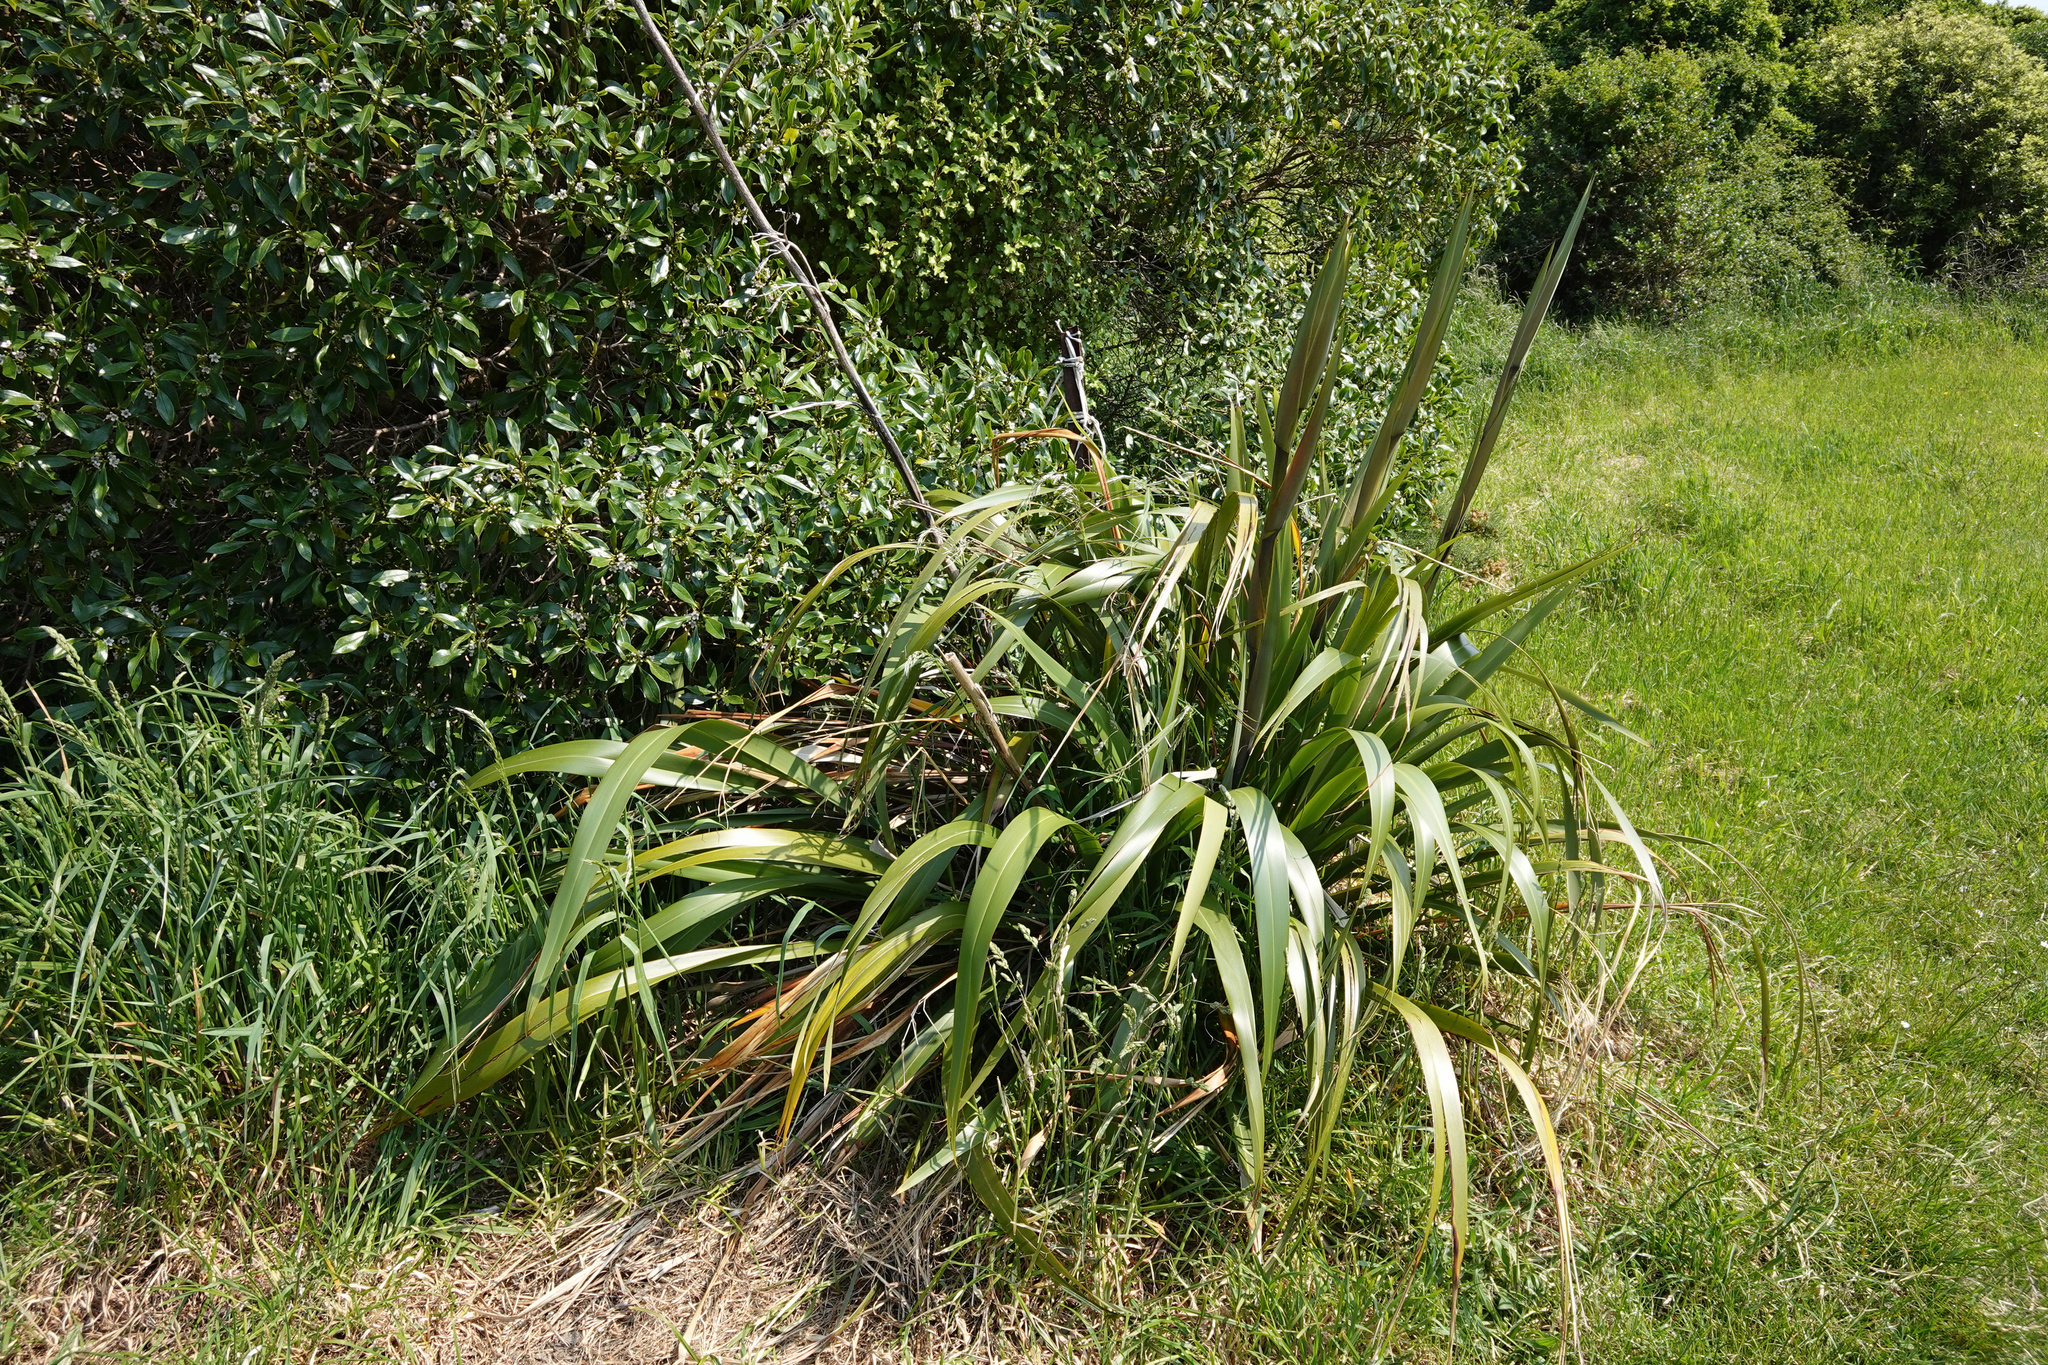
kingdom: Plantae
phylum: Tracheophyta
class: Liliopsida
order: Asparagales
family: Asphodelaceae
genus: Phormium
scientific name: Phormium colensoi
